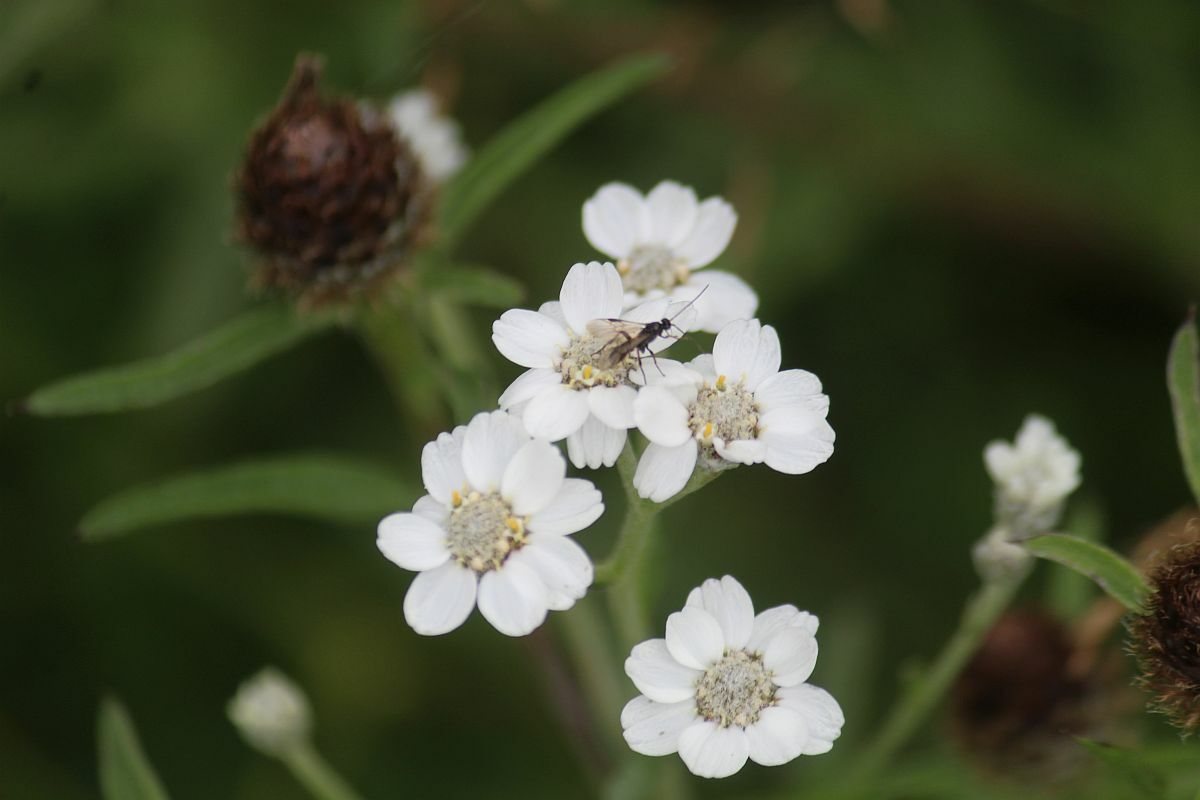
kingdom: Plantae
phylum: Tracheophyta
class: Magnoliopsida
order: Asterales
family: Asteraceae
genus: Achillea
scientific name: Achillea ptarmica
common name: Sneezeweed
